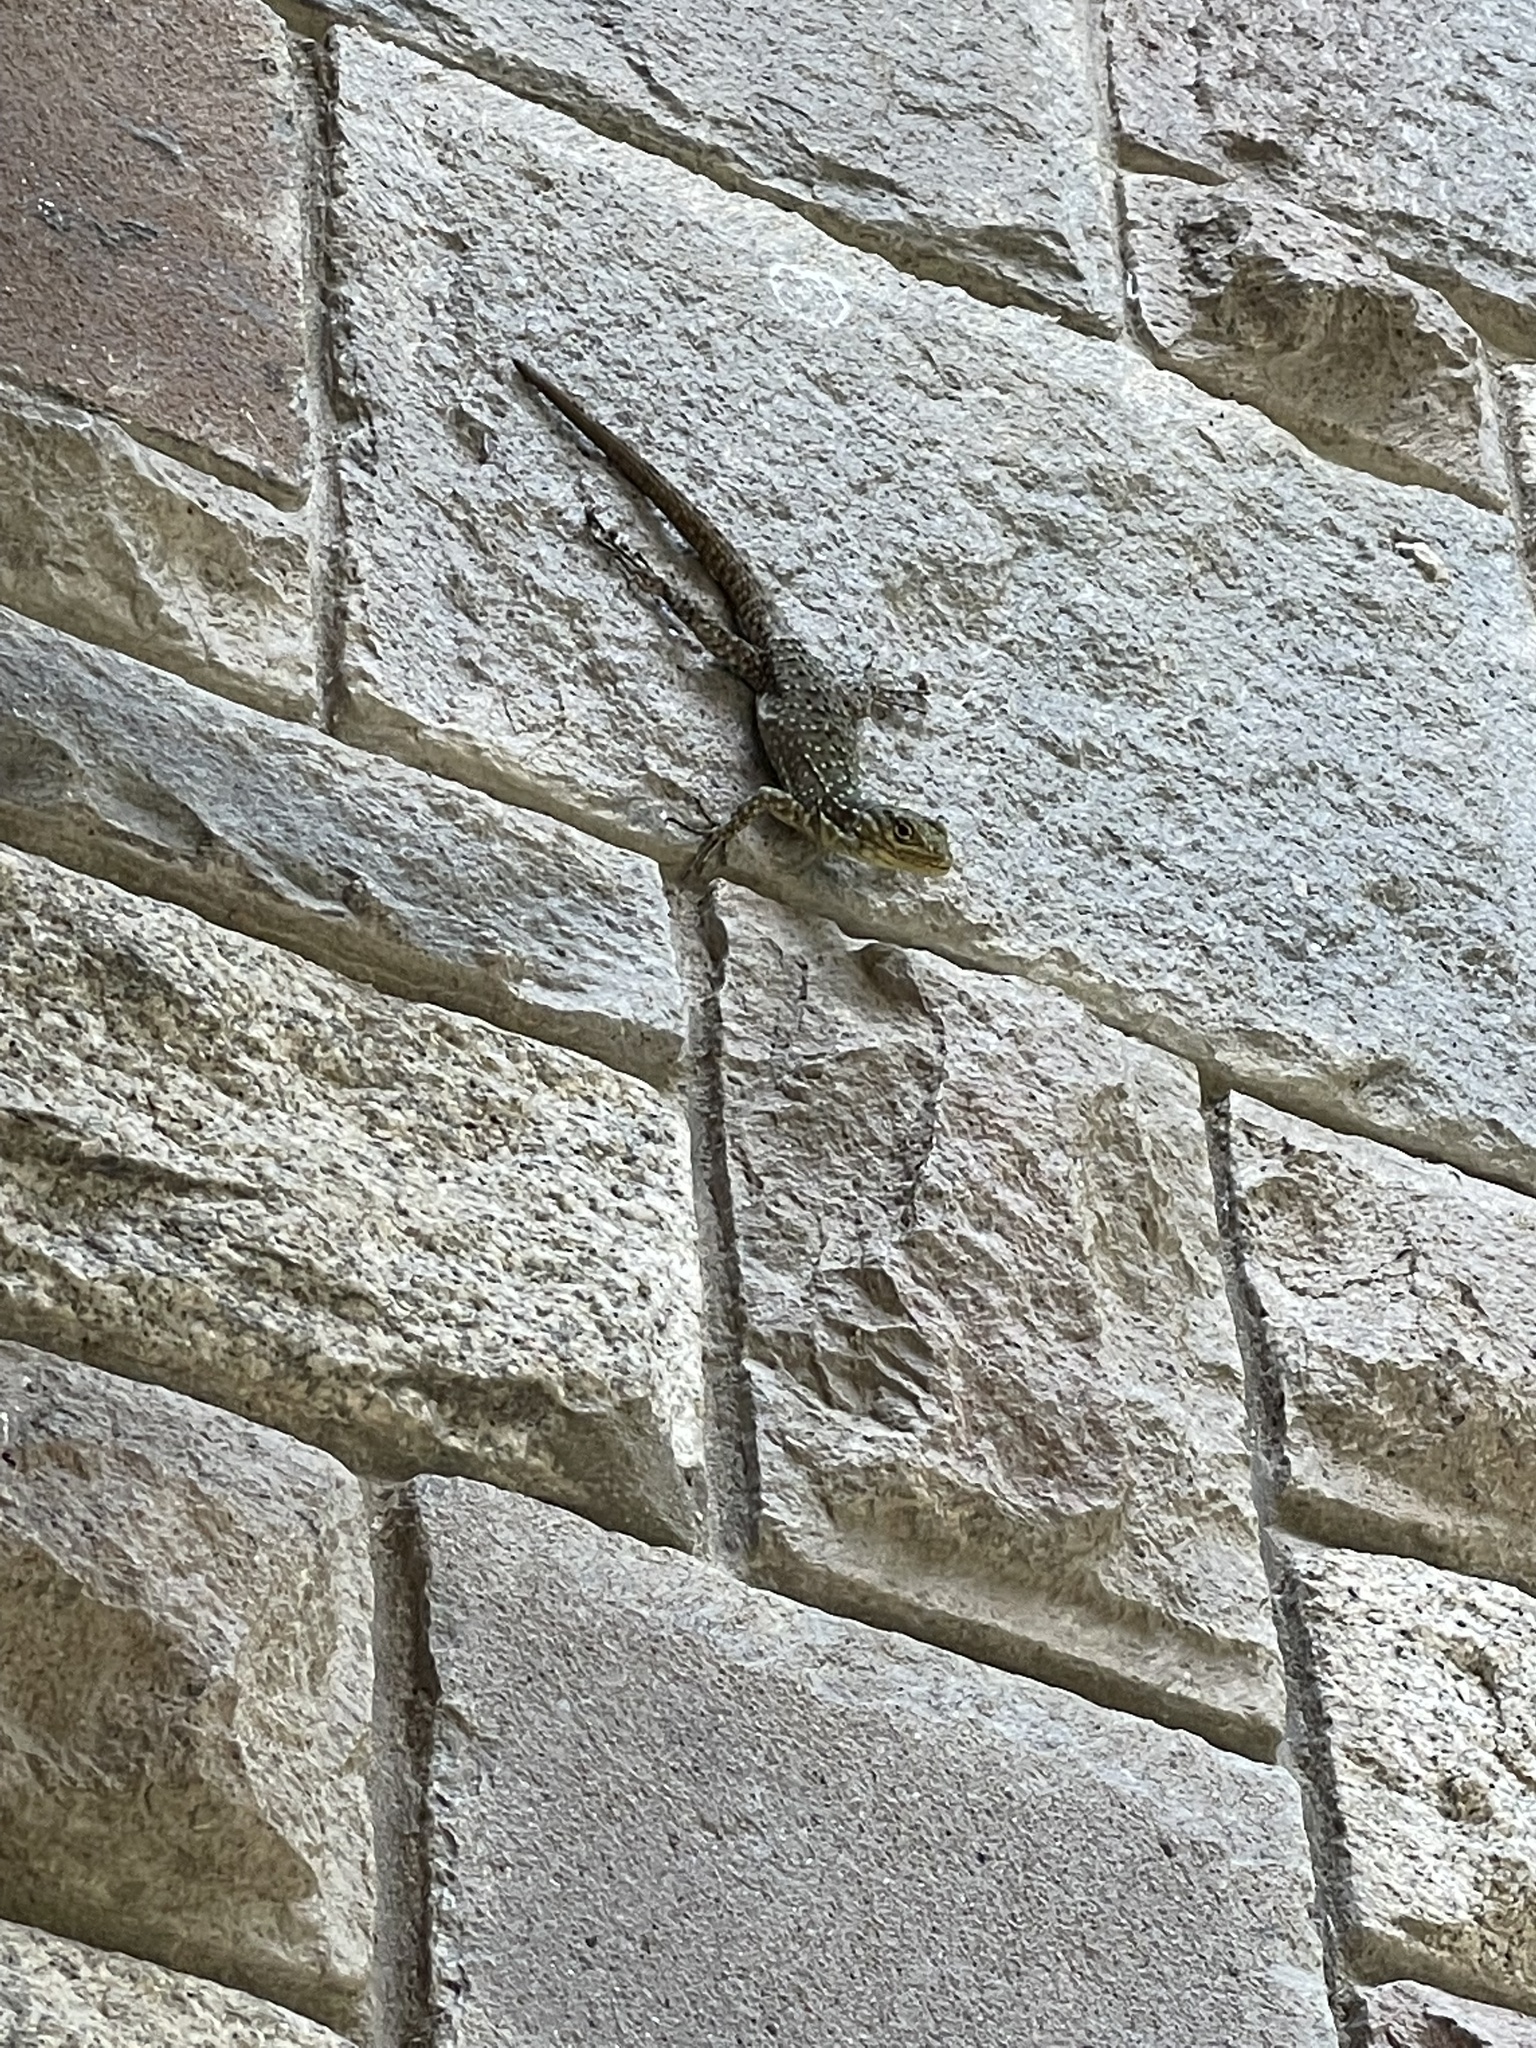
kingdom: Animalia
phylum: Chordata
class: Squamata
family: Tropiduridae
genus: Stenocercus
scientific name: Stenocercus crassicaudatus
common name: Spiny whorltail iguana
